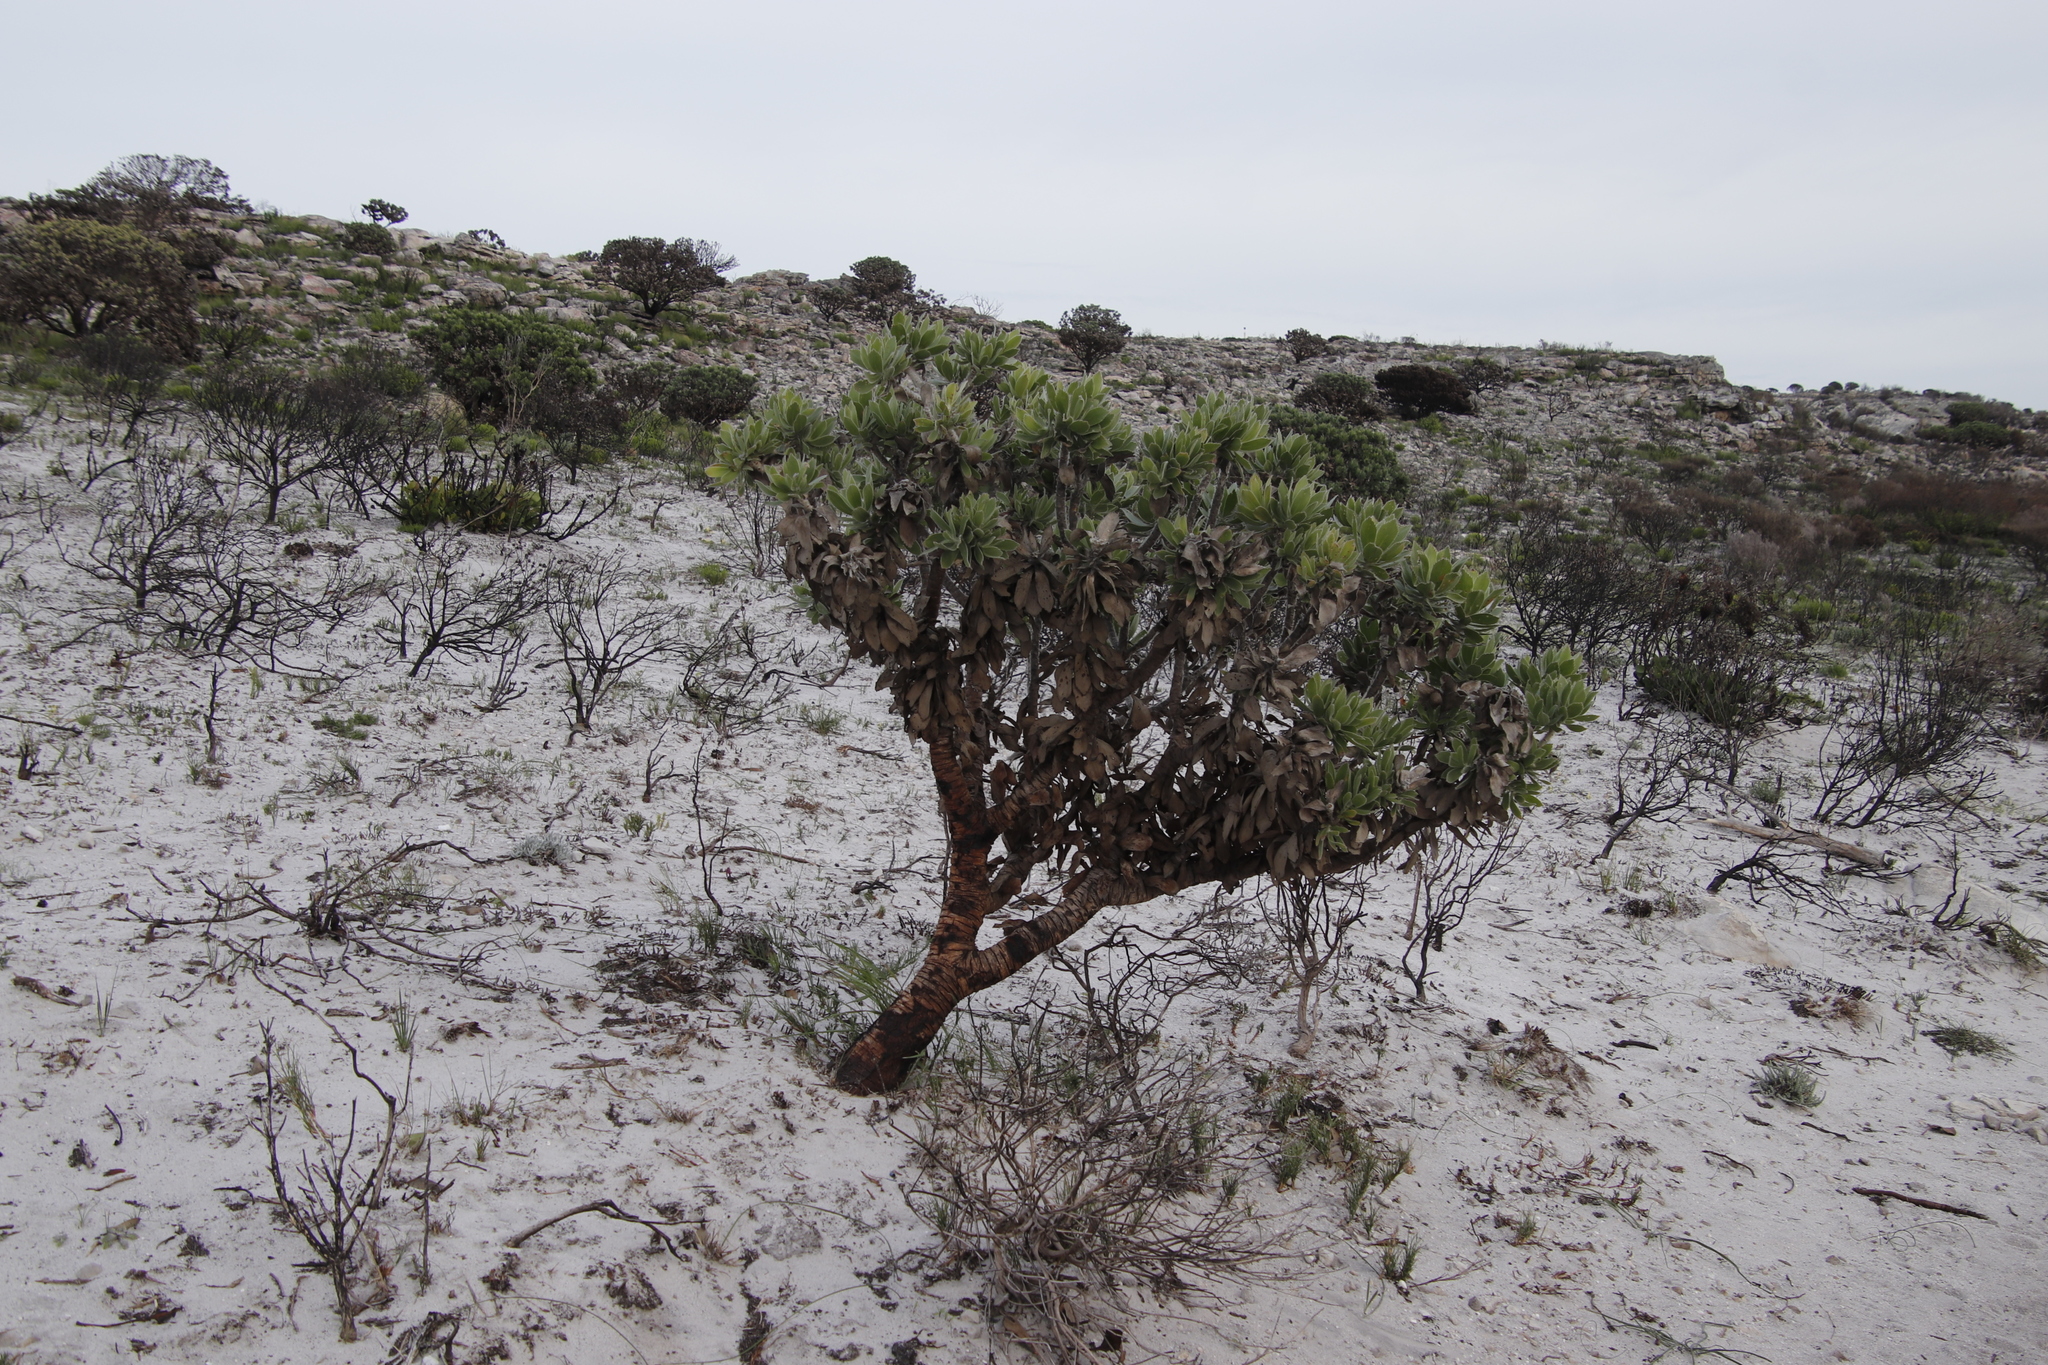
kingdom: Plantae
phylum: Tracheophyta
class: Magnoliopsida
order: Proteales
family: Proteaceae
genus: Leucospermum
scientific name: Leucospermum conocarpodendron
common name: Tree pincushion
